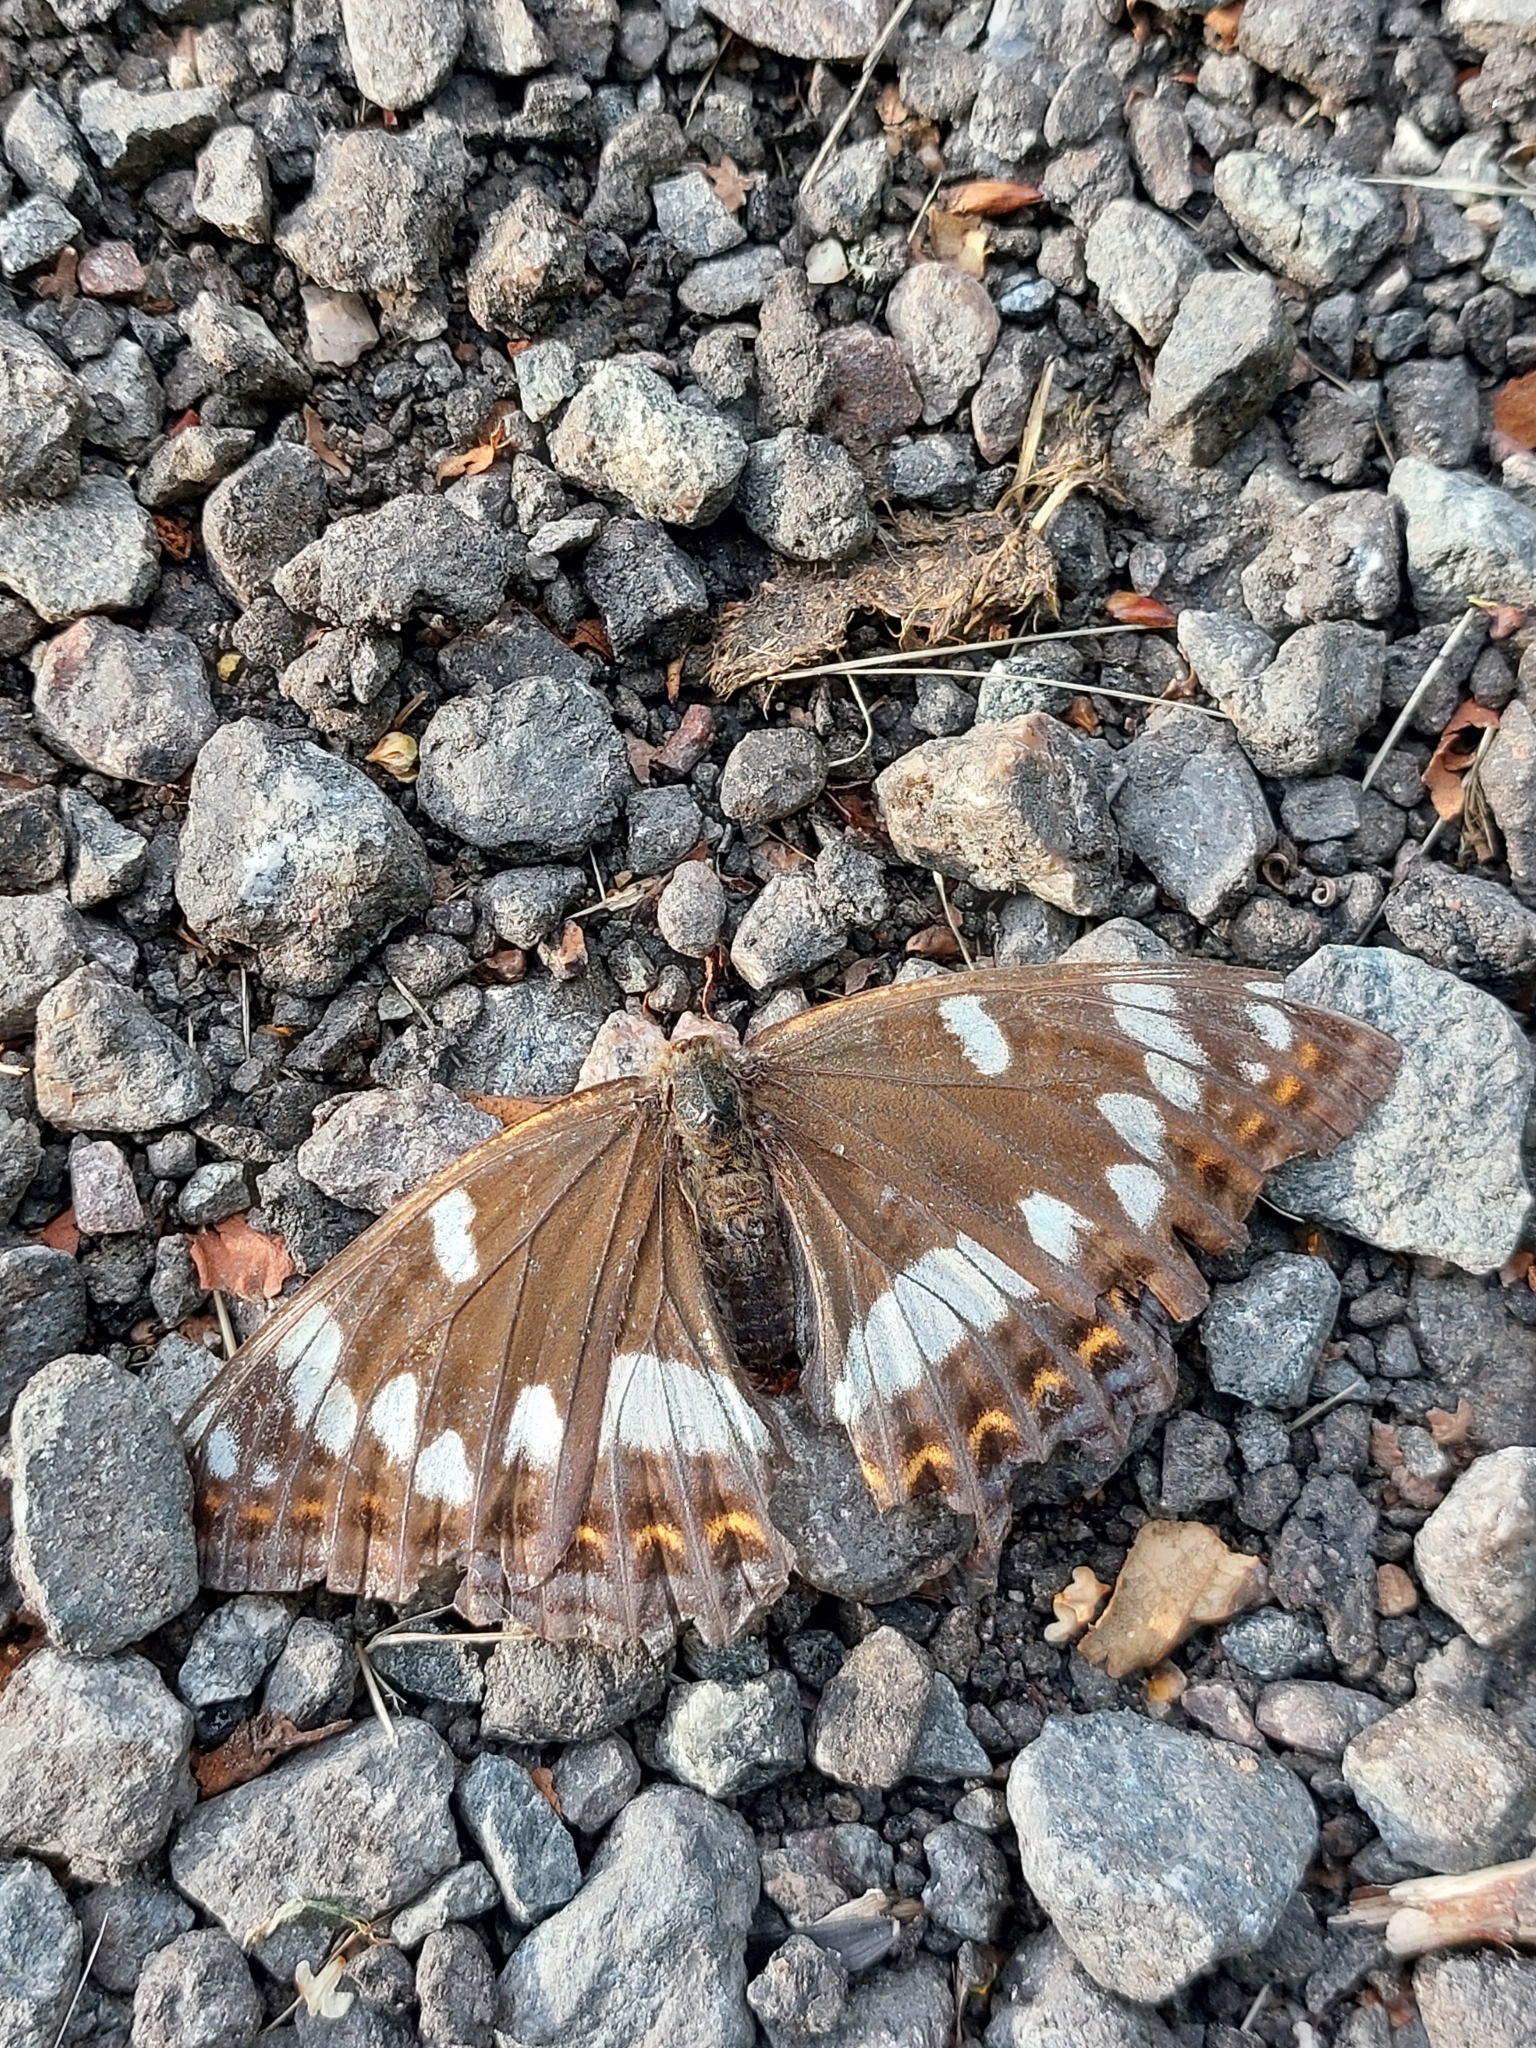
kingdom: Animalia
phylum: Arthropoda
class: Insecta
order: Lepidoptera
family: Nymphalidae
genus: Limenitis
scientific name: Limenitis populi
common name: Poplar admiral
